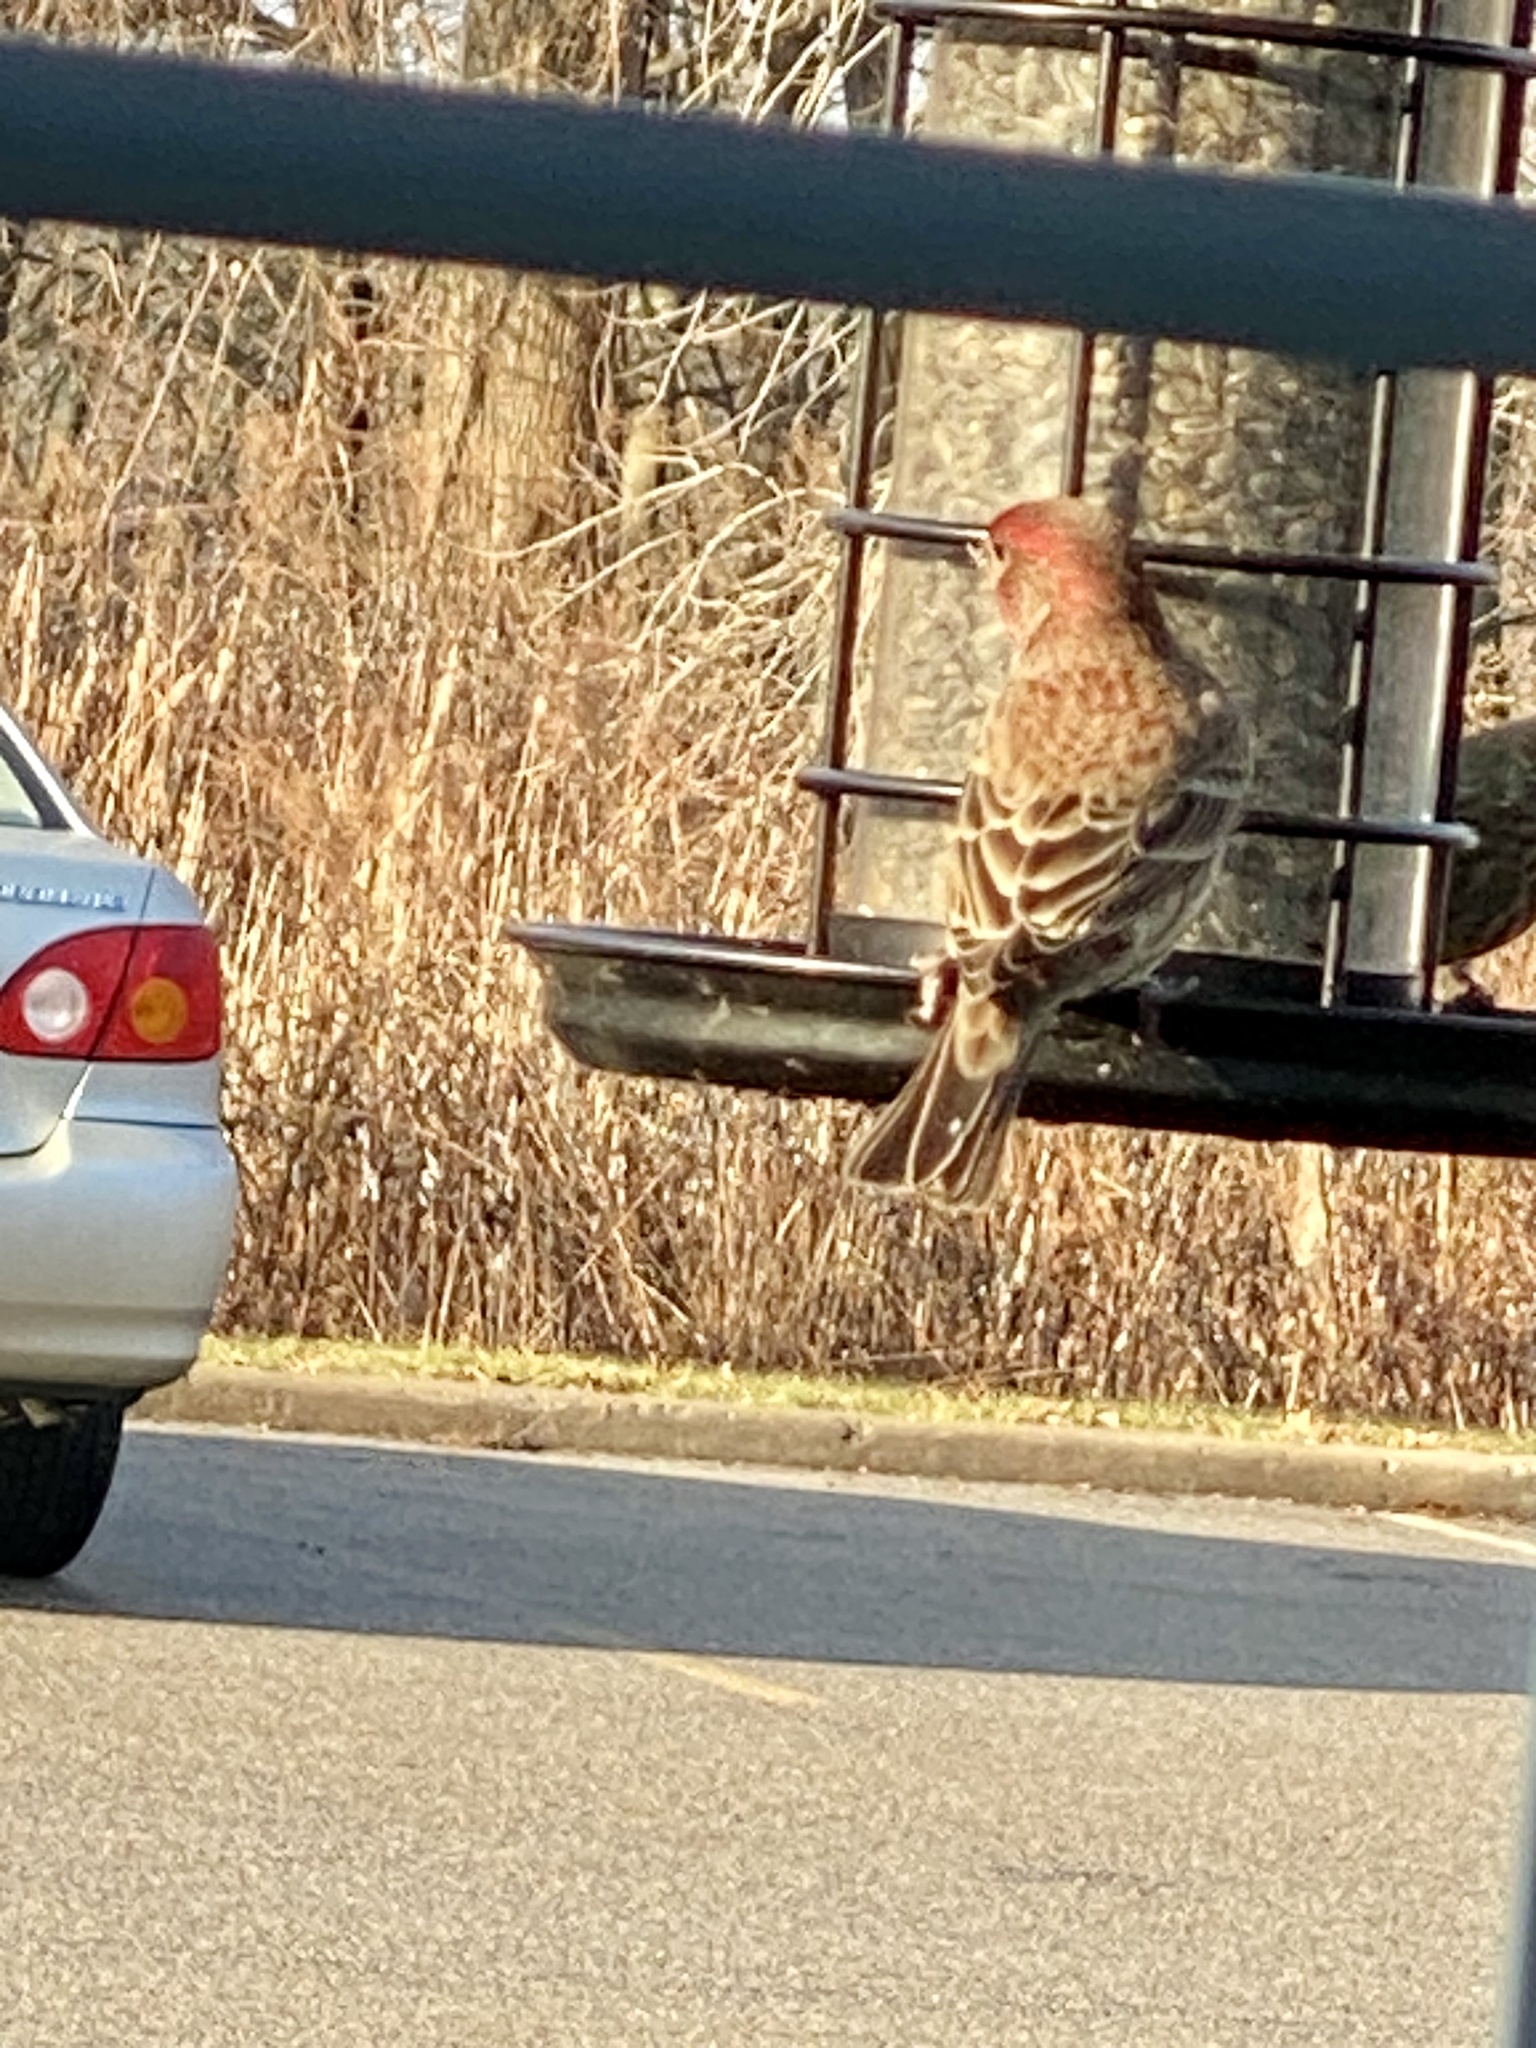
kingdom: Animalia
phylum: Chordata
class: Aves
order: Passeriformes
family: Fringillidae
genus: Haemorhous
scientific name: Haemorhous mexicanus
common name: House finch
